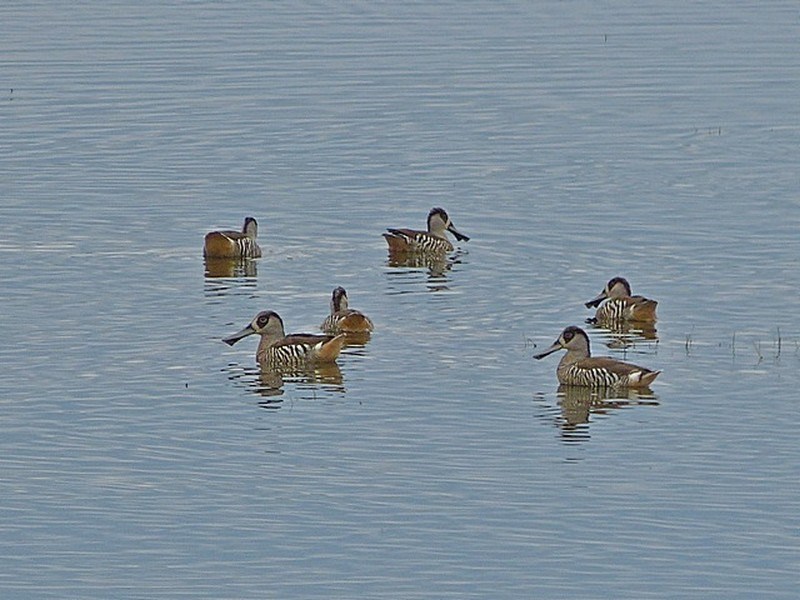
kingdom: Animalia
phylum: Chordata
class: Aves
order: Anseriformes
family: Anatidae
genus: Malacorhynchus
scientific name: Malacorhynchus membranaceus
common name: Pink-eared duck
